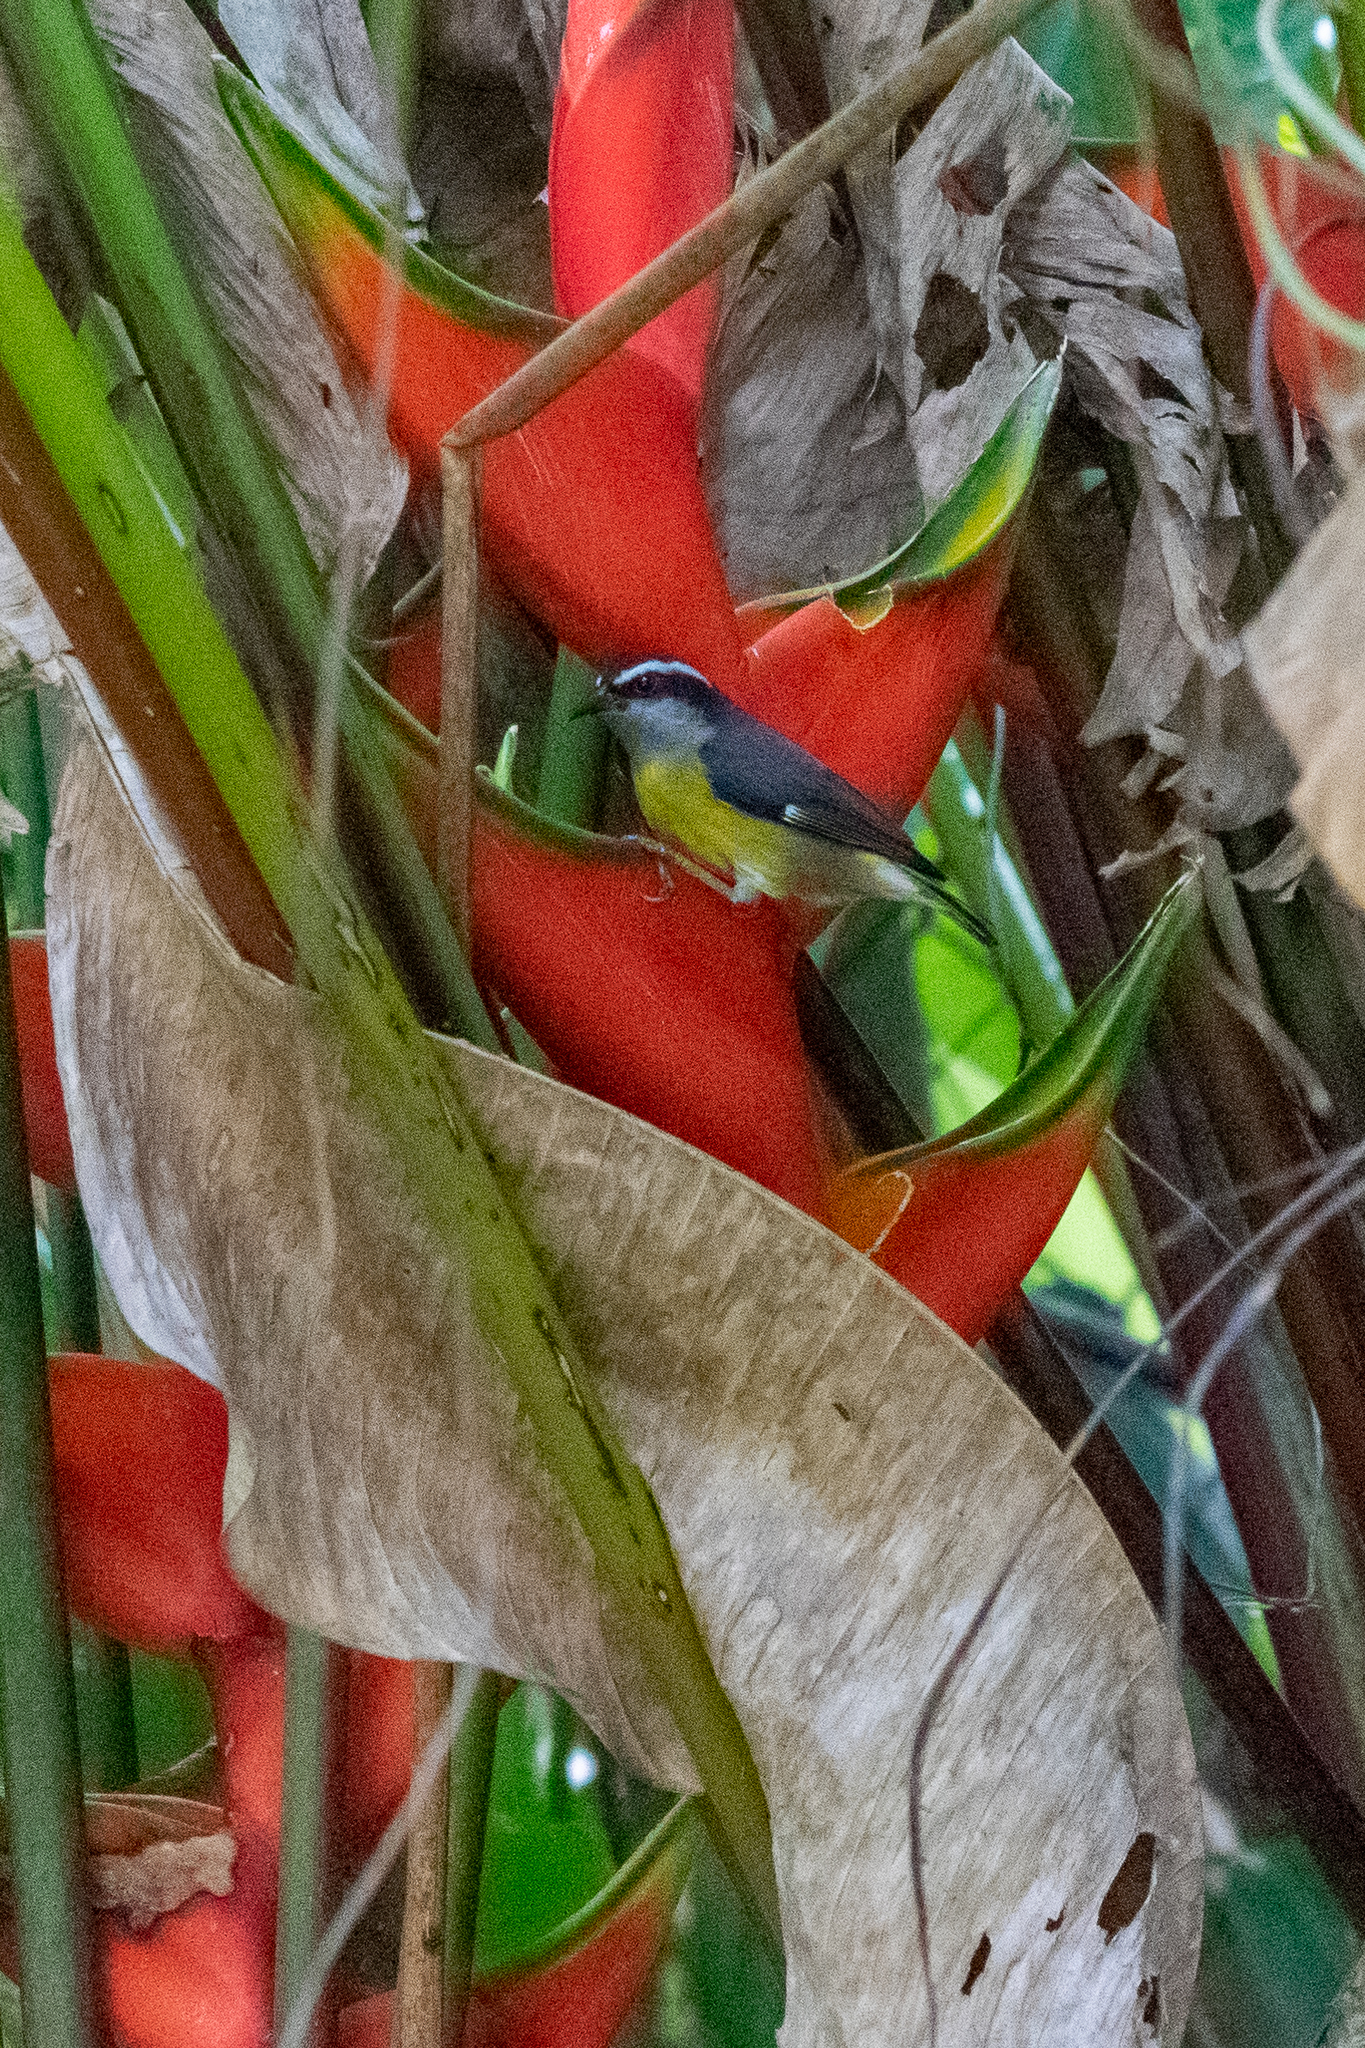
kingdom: Animalia
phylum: Chordata
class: Aves
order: Passeriformes
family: Thraupidae
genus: Coereba
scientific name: Coereba flaveola
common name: Bananaquit
